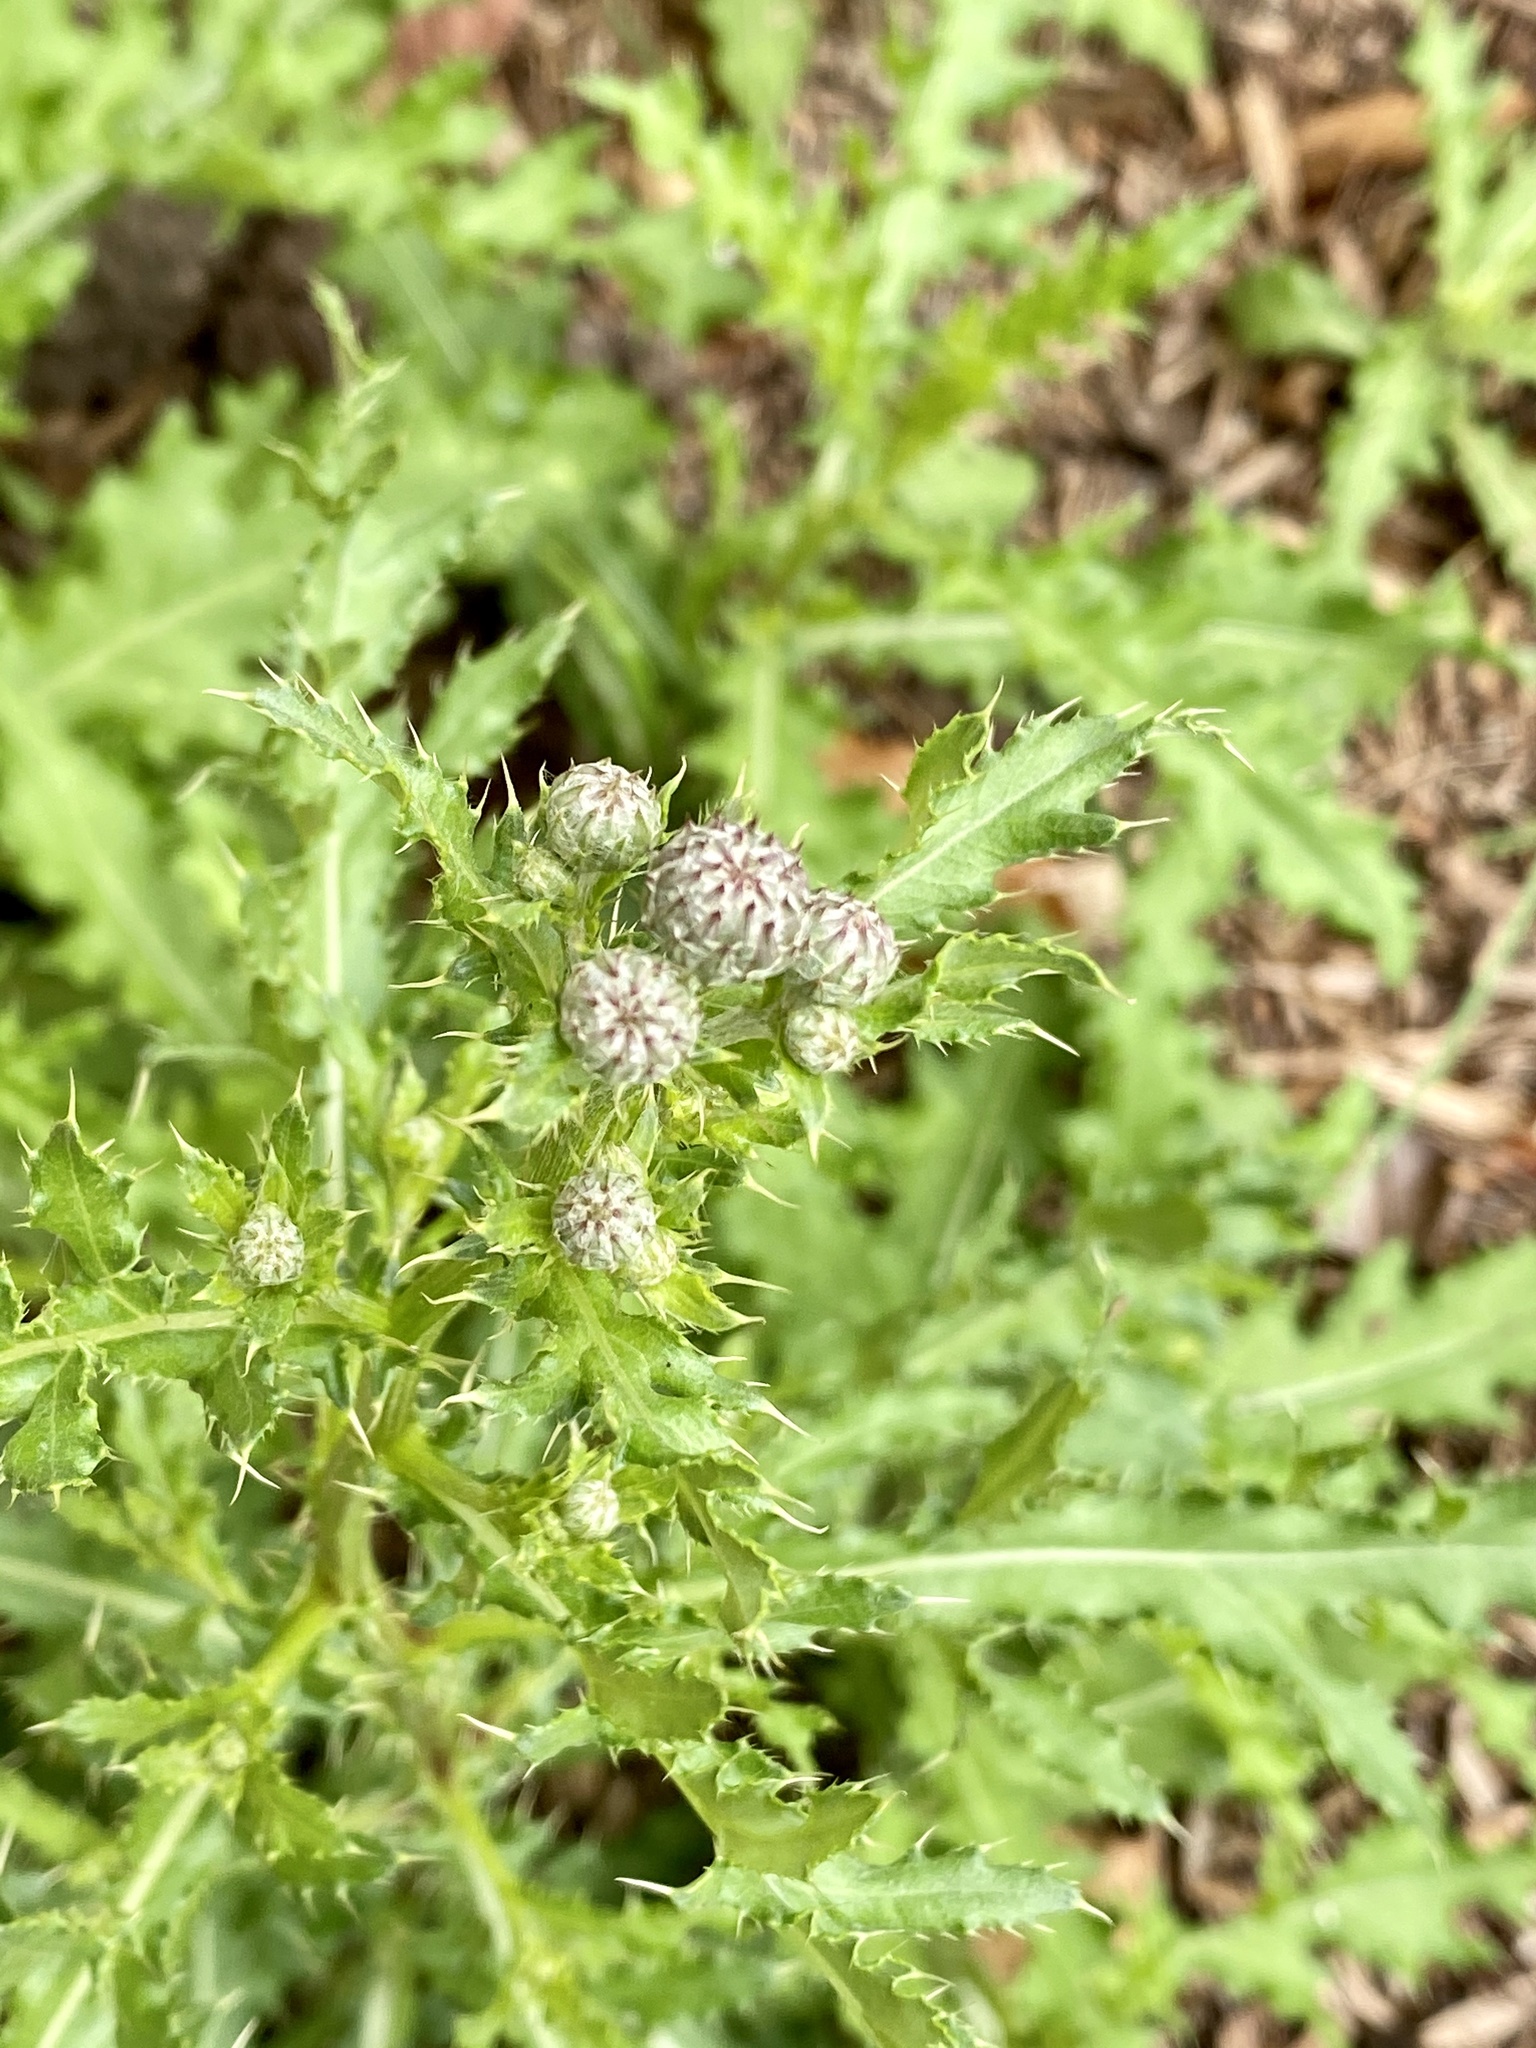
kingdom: Plantae
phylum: Tracheophyta
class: Magnoliopsida
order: Asterales
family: Asteraceae
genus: Cirsium
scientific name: Cirsium arvense
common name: Creeping thistle
